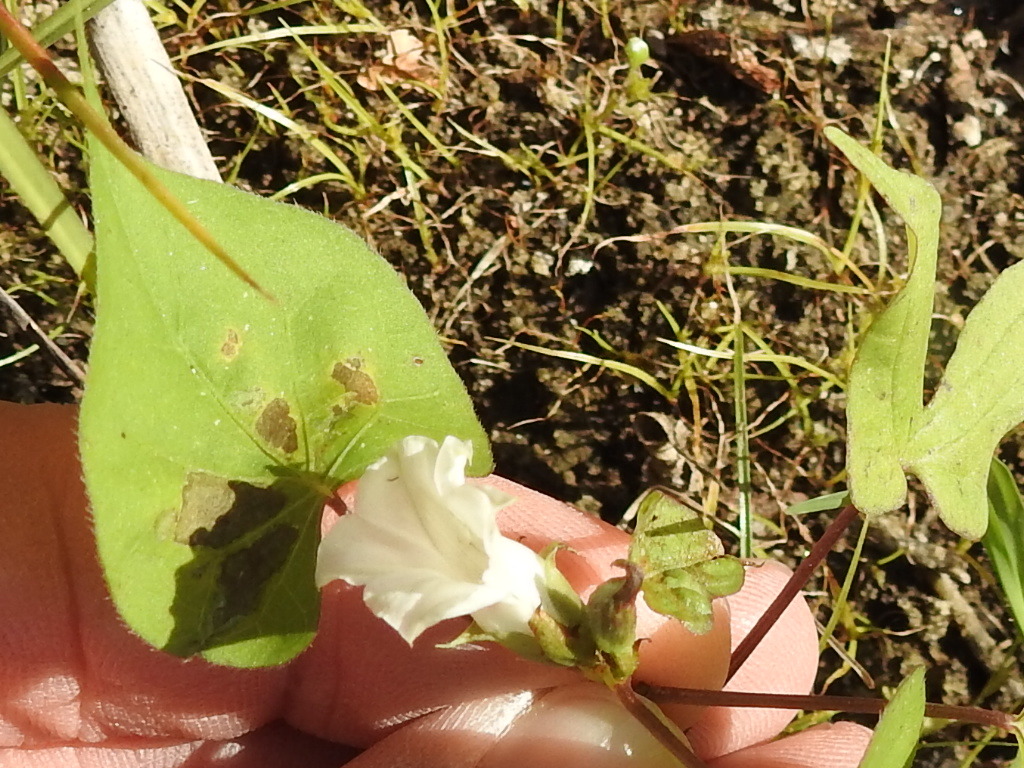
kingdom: Plantae
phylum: Tracheophyta
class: Magnoliopsida
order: Solanales
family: Convolvulaceae
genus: Ipomoea
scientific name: Ipomoea lacunosa
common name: White morning-glory
